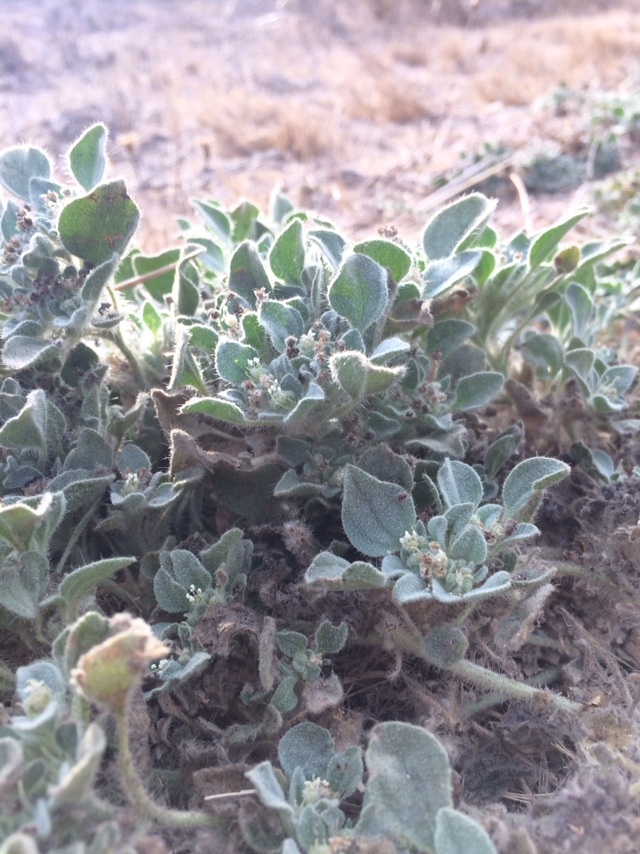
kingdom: Plantae
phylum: Tracheophyta
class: Magnoliopsida
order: Malpighiales
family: Euphorbiaceae
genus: Croton
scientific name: Croton setiger
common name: Dove weed
